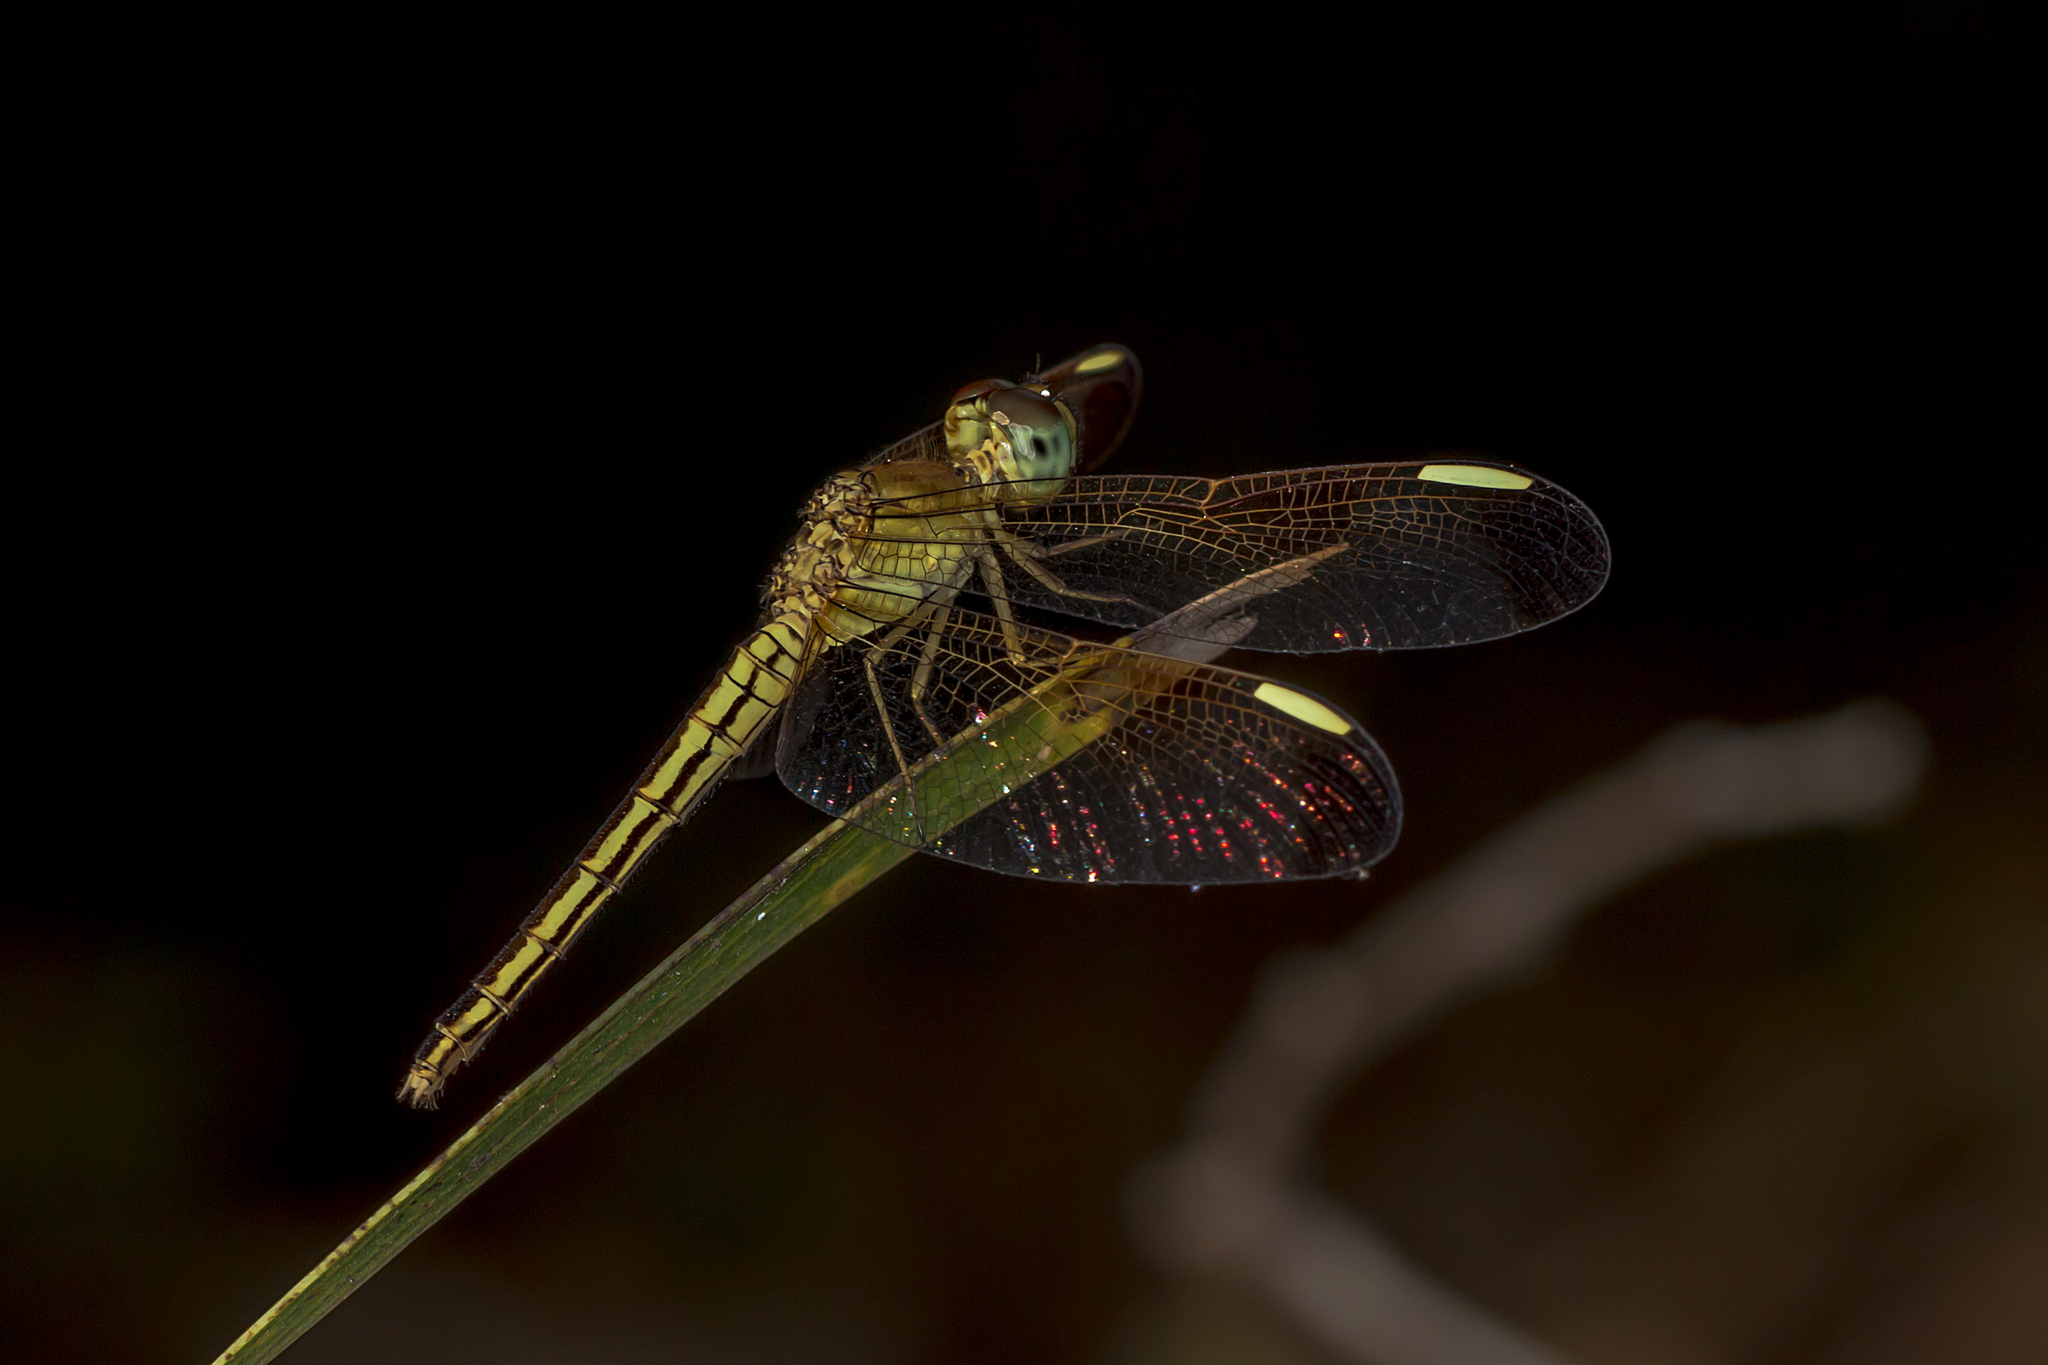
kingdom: Animalia
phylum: Arthropoda
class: Insecta
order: Odonata
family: Libellulidae
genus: Neurothemis
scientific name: Neurothemis stigmatizans
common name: Painted grasshawk
